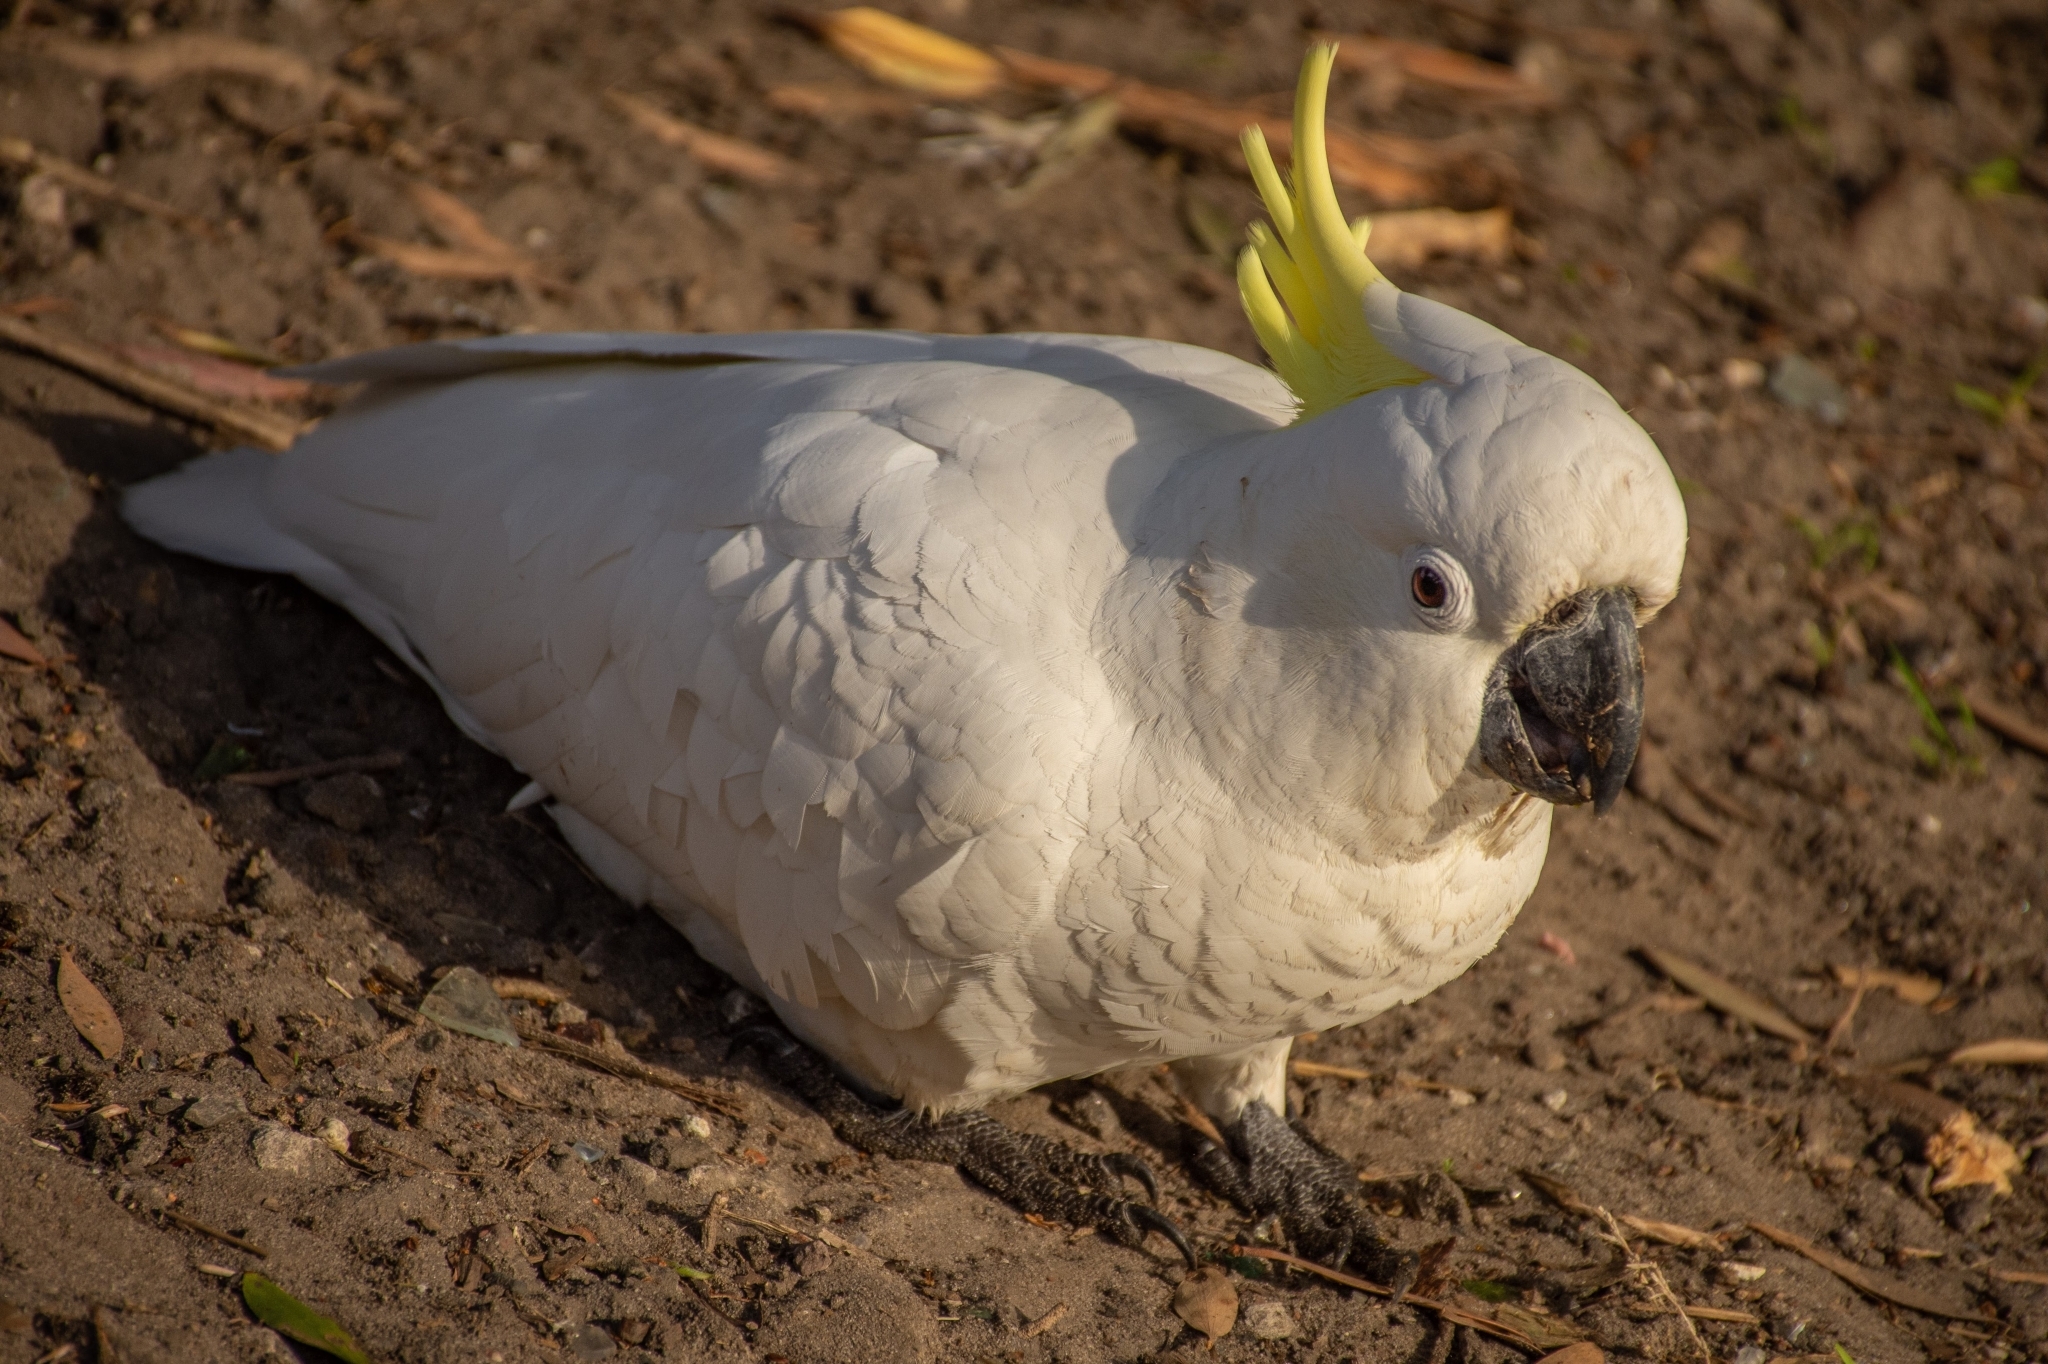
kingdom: Animalia
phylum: Chordata
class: Aves
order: Psittaciformes
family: Psittacidae
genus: Cacatua
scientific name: Cacatua galerita
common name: Sulphur-crested cockatoo
